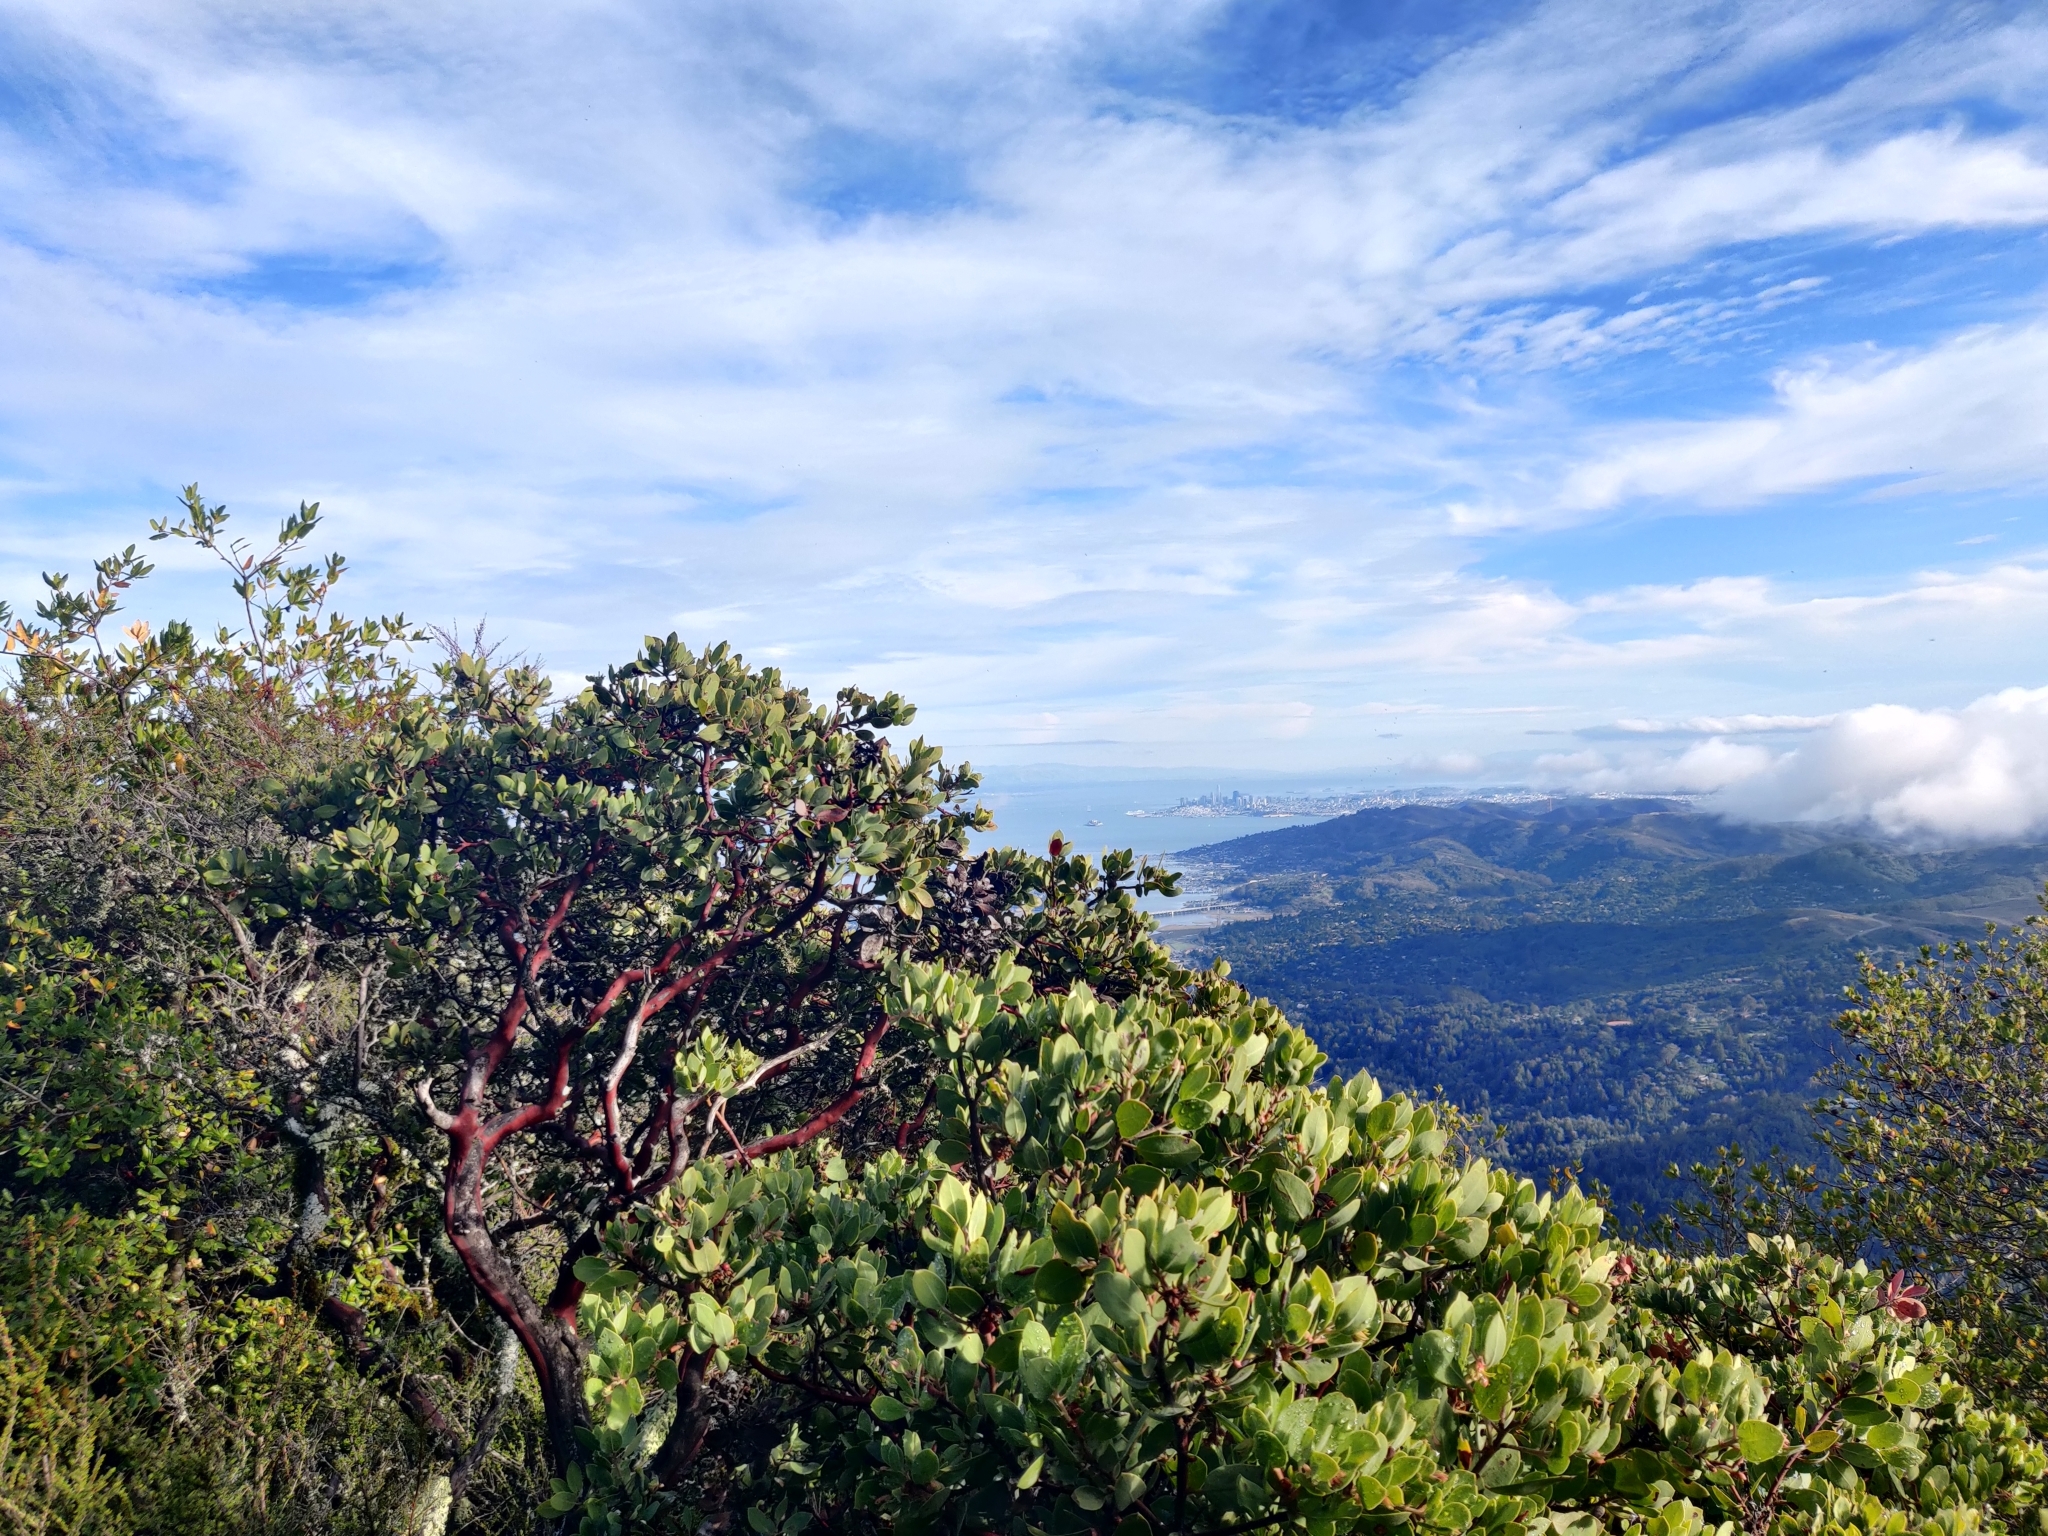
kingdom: Plantae
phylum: Tracheophyta
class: Magnoliopsida
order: Ericales
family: Ericaceae
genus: Arctostaphylos
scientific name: Arctostaphylos glandulosa
